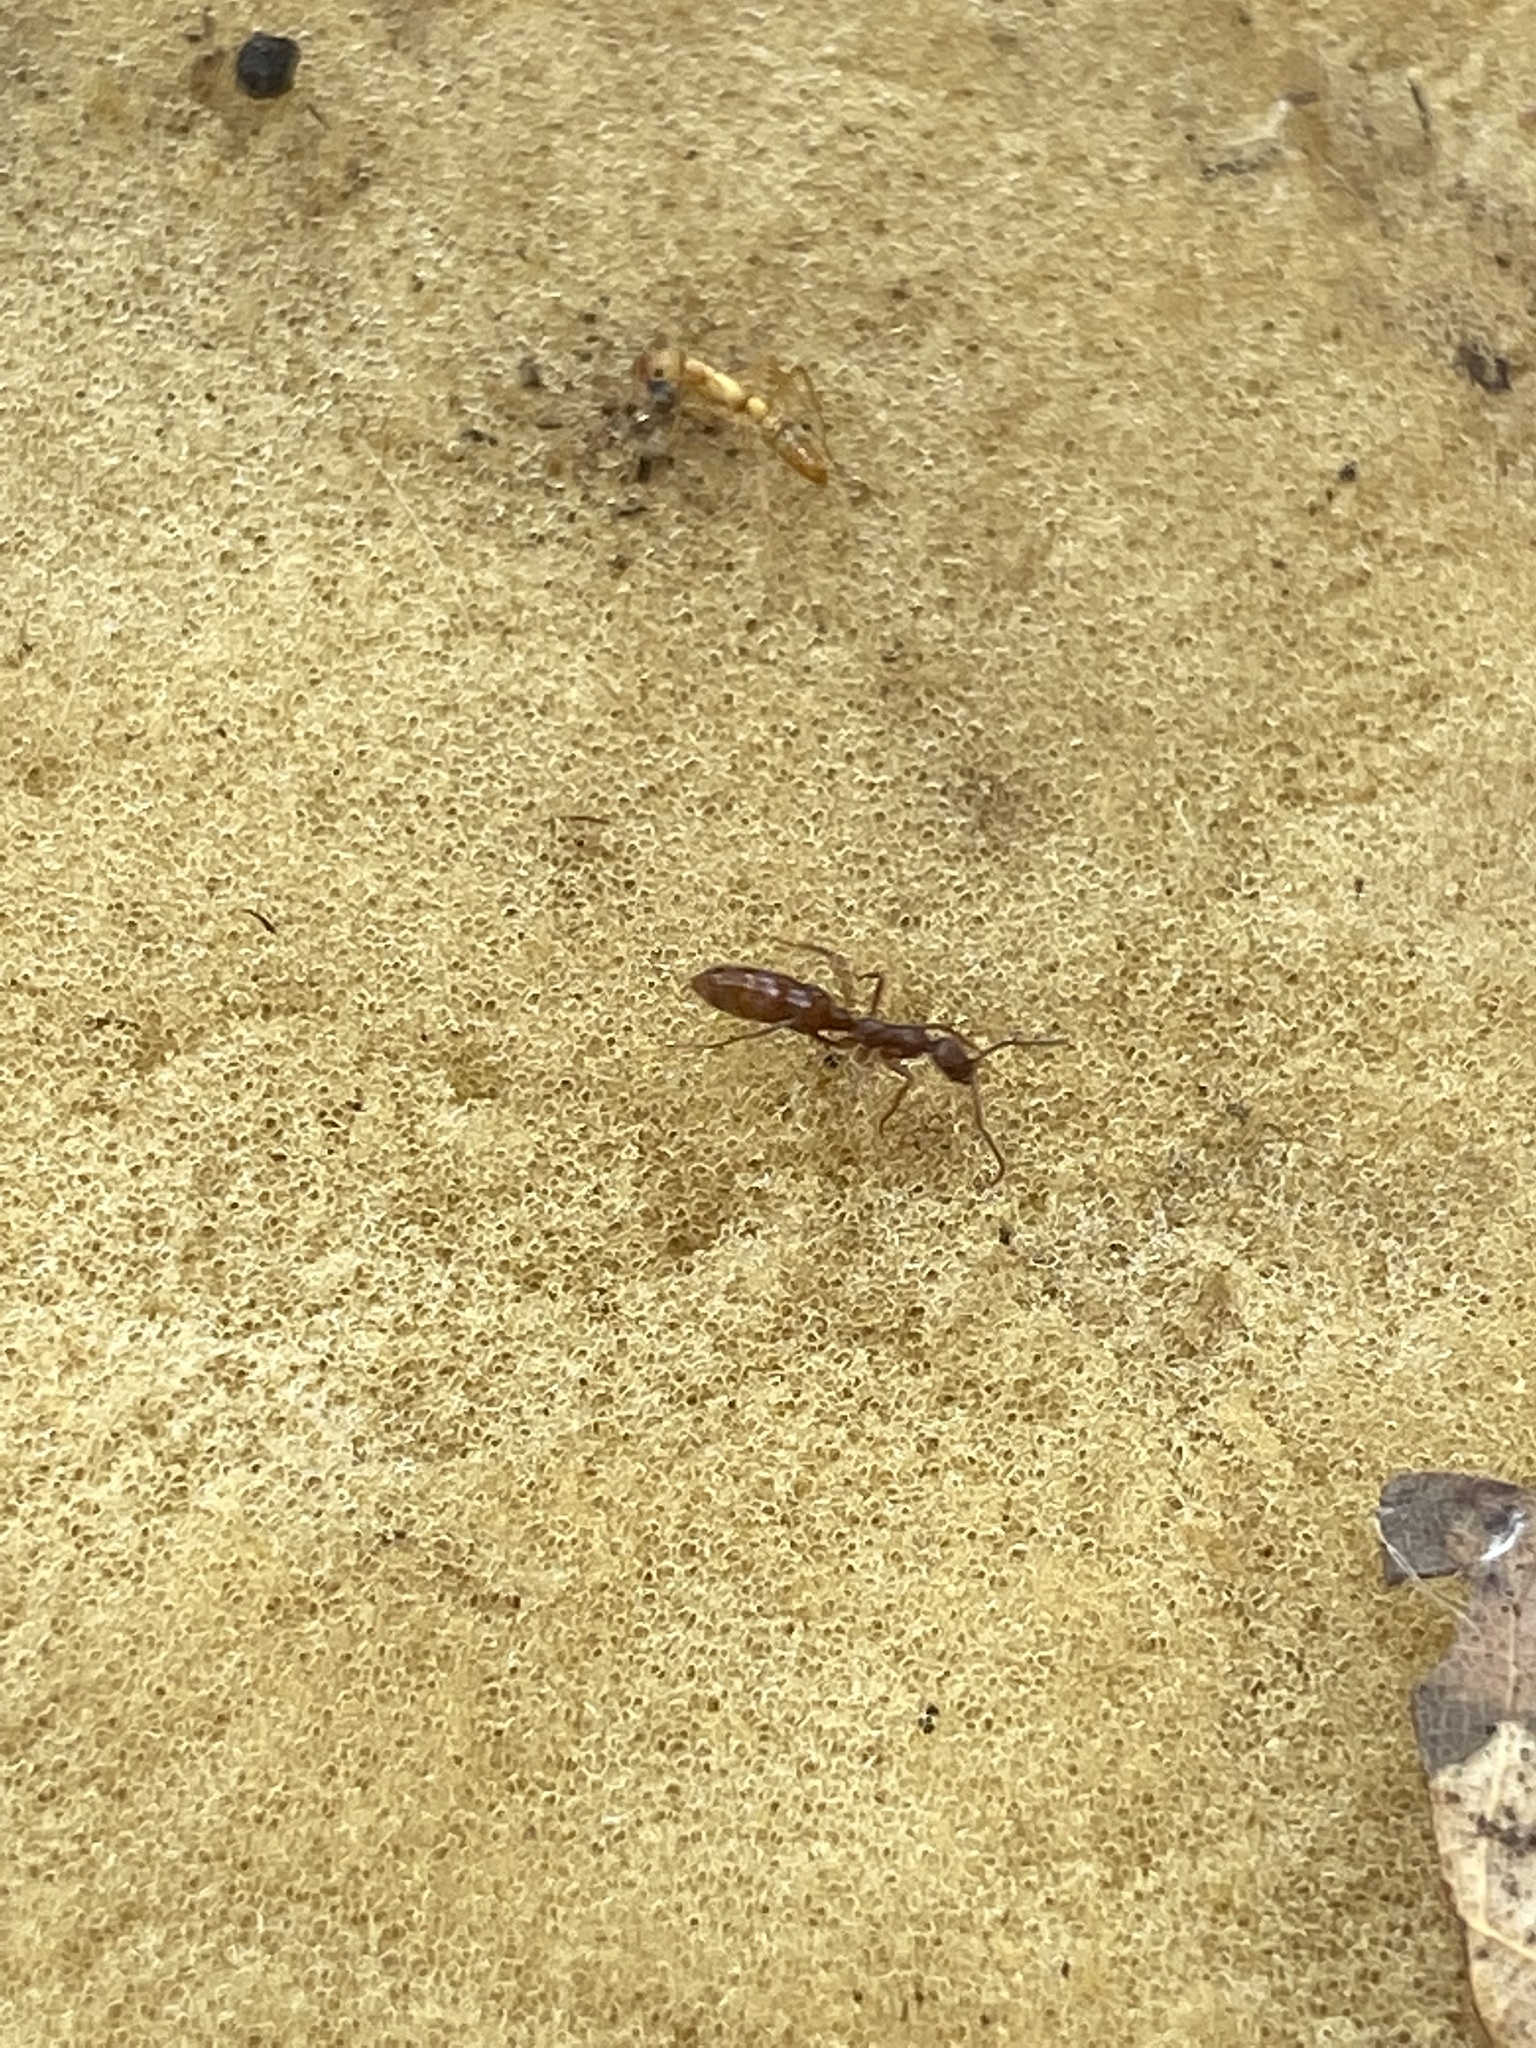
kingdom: Animalia
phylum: Arthropoda
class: Insecta
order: Hymenoptera
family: Formicidae
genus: Leptogenys
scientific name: Leptogenys elongata
